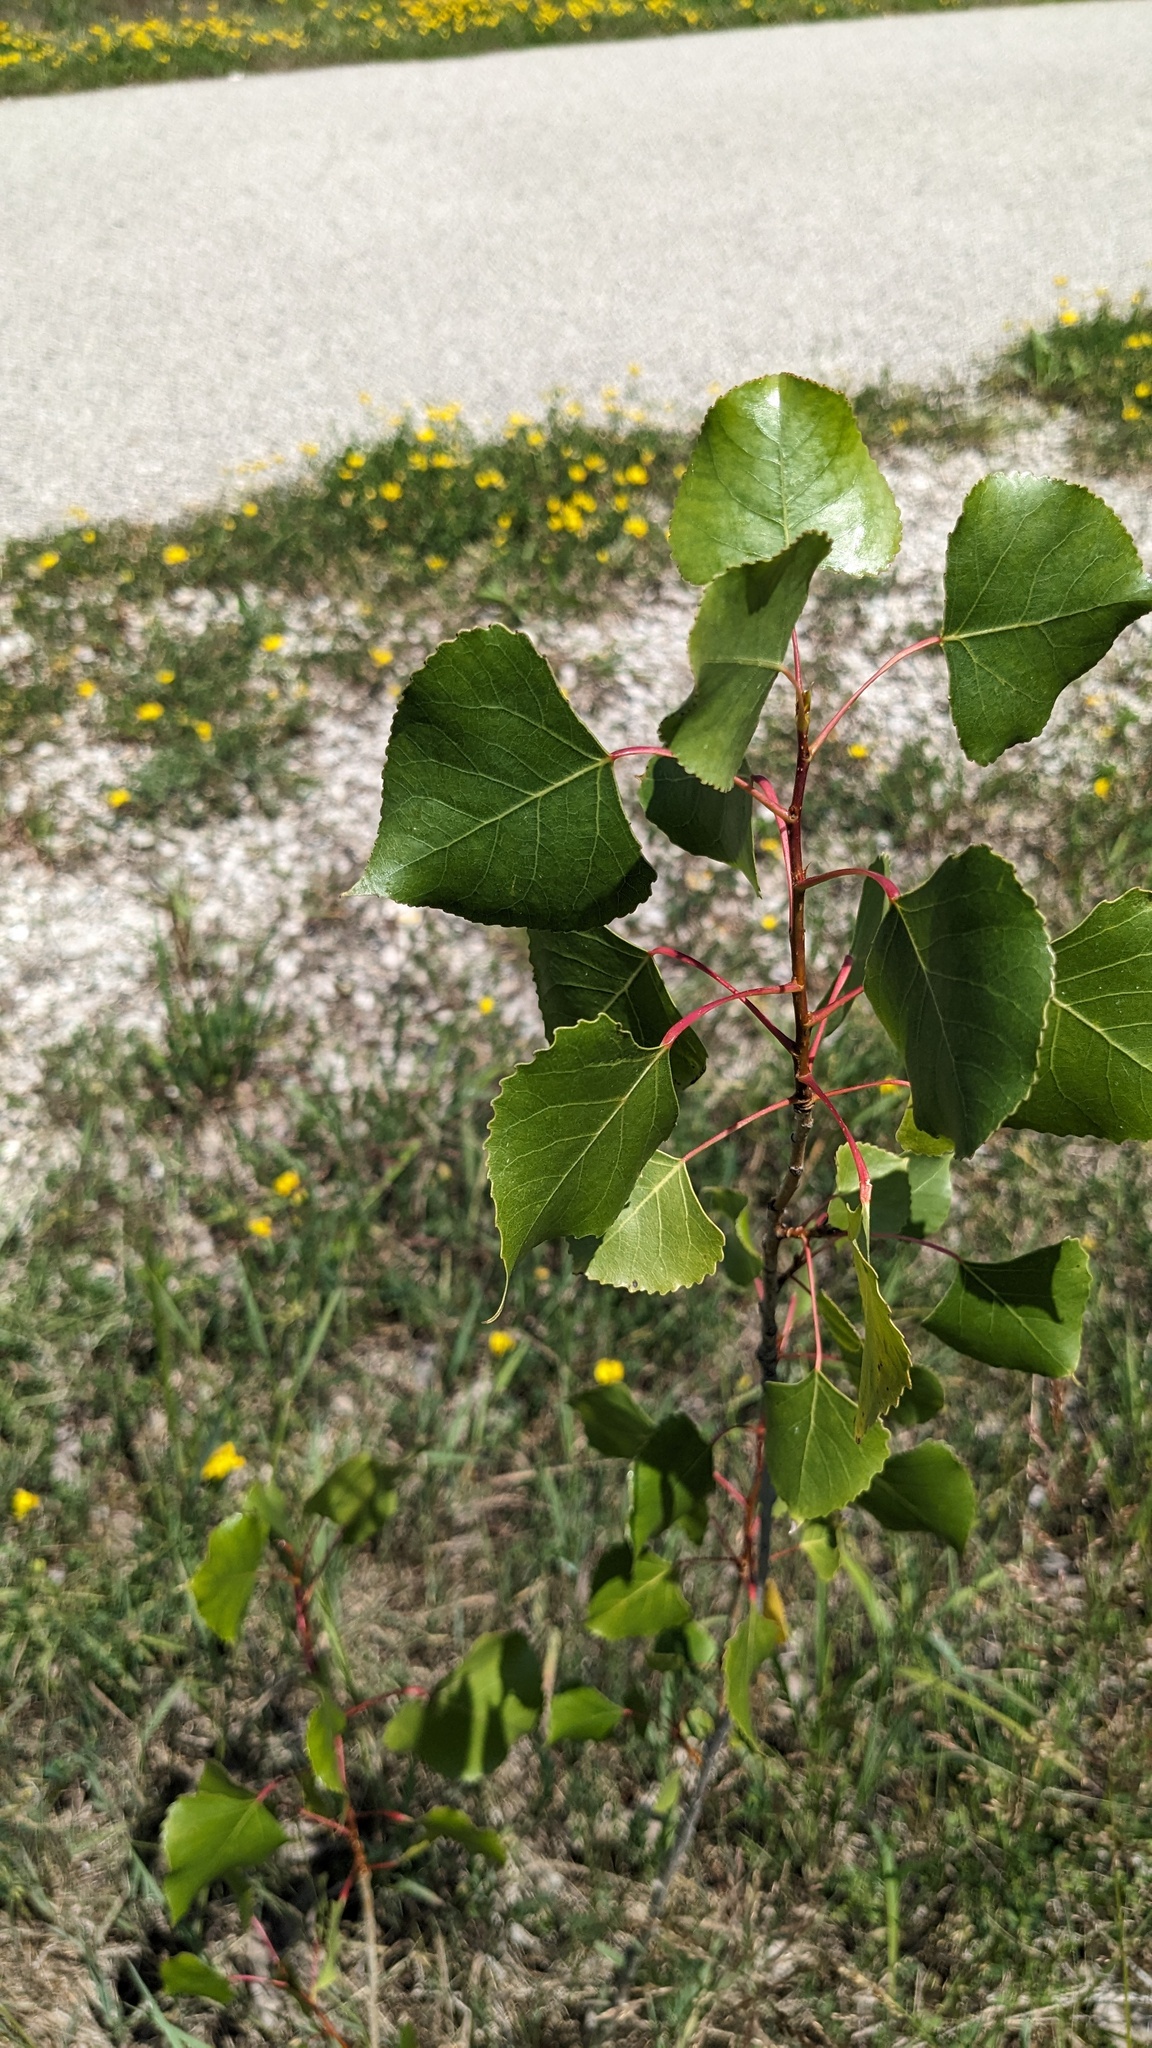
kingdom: Plantae
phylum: Tracheophyta
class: Magnoliopsida
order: Malpighiales
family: Salicaceae
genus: Populus
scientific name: Populus deltoides
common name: Eastern cottonwood
